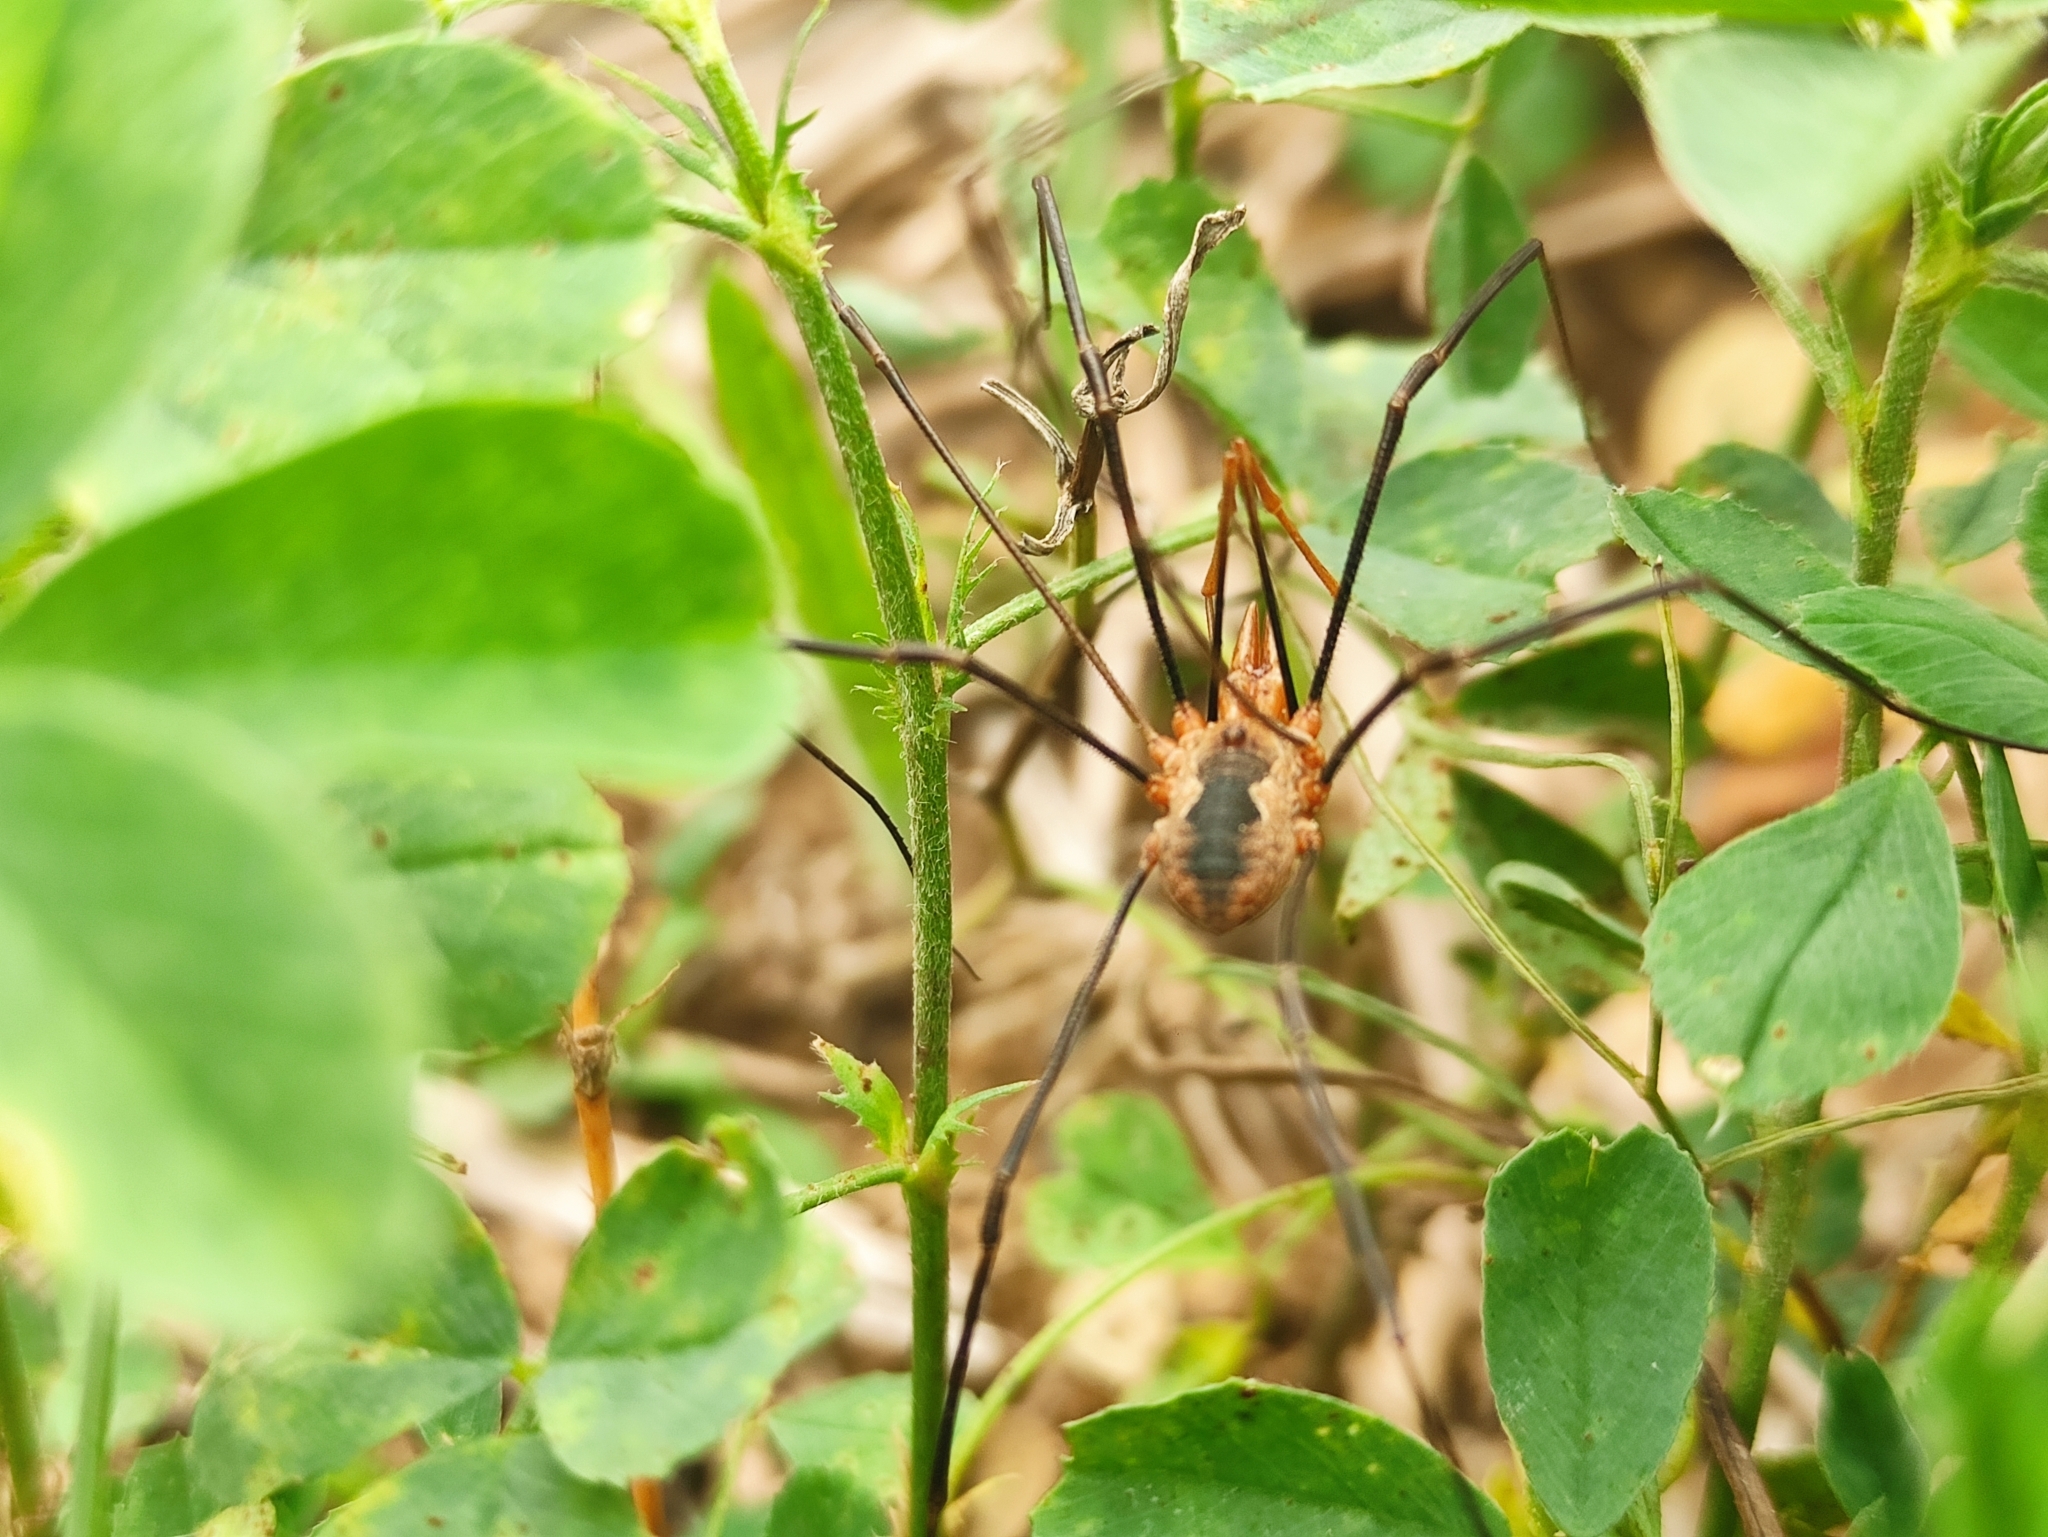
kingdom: Animalia
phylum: Arthropoda
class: Arachnida
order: Opiliones
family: Phalangiidae
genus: Phalangium
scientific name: Phalangium opilio
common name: Daddy longleg
